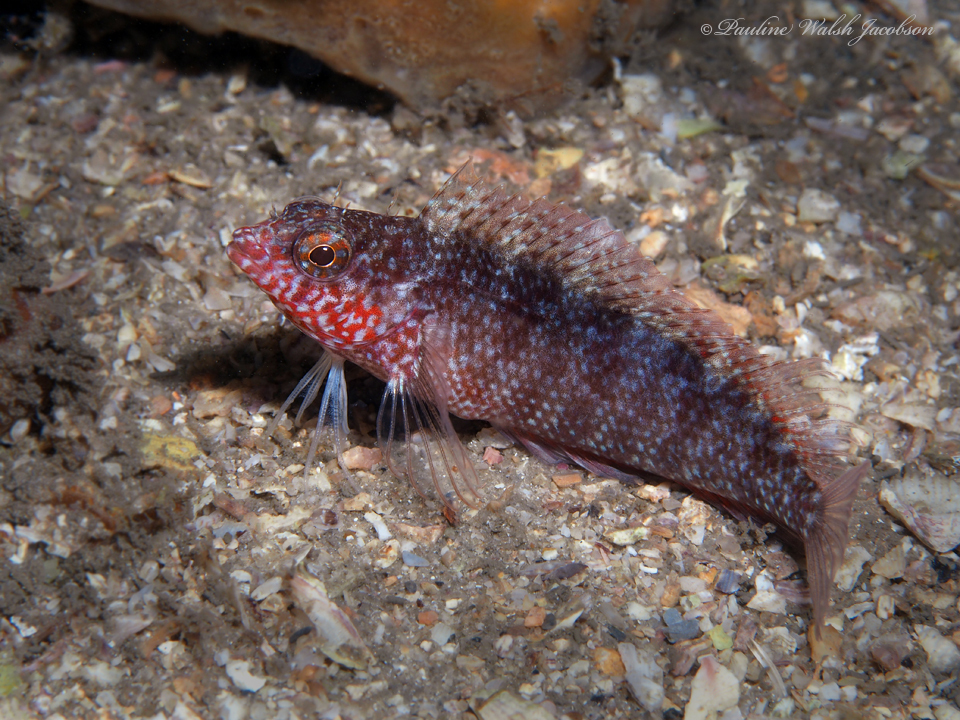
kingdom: Animalia
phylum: Chordata
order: Perciformes
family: Labrisomidae
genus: Malacoctenus
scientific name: Malacoctenus macropus
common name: Rosy blenny
